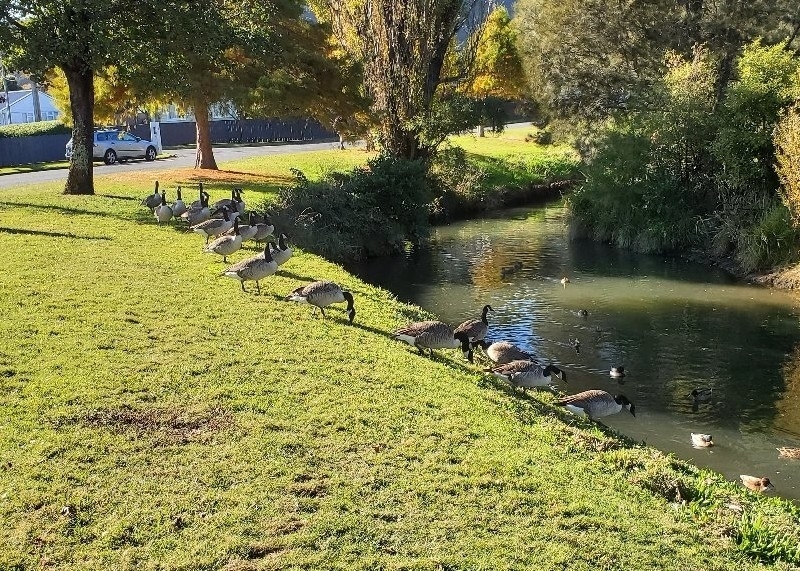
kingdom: Animalia
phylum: Chordata
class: Aves
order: Anseriformes
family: Anatidae
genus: Branta
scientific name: Branta canadensis
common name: Canada goose
